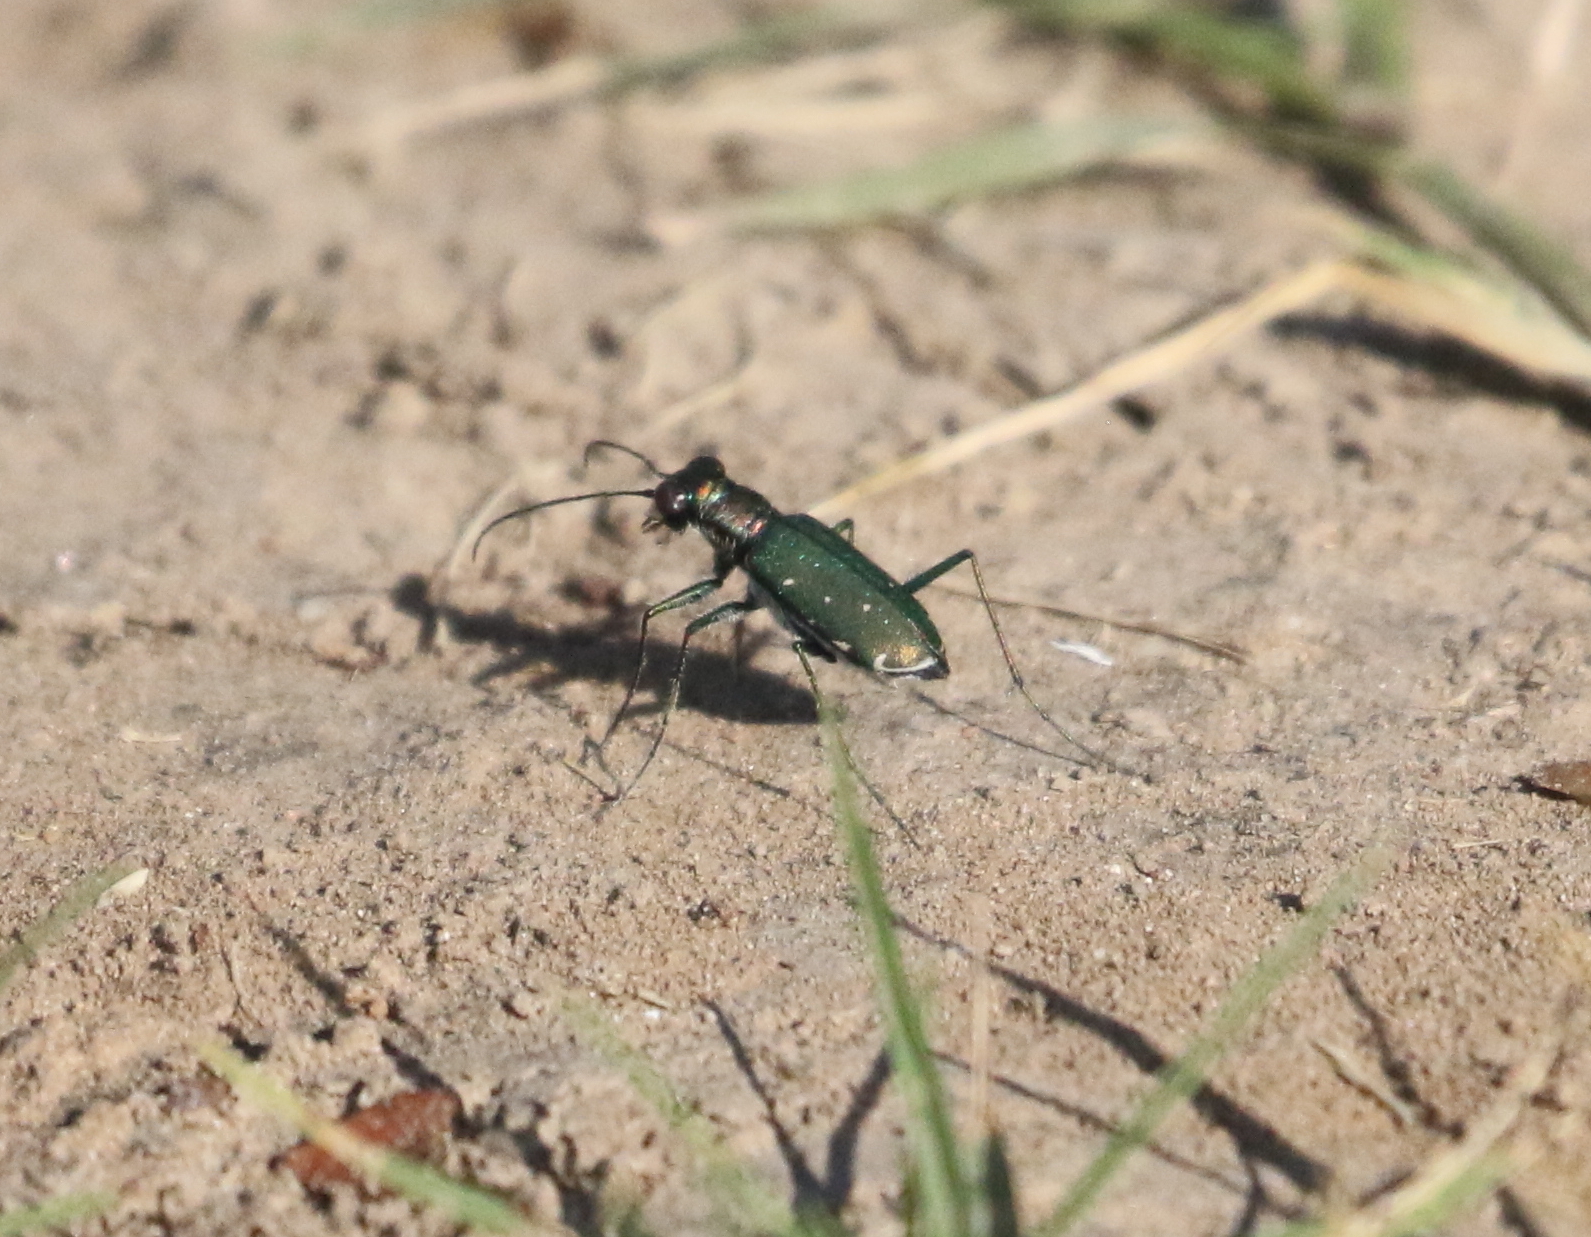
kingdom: Animalia
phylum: Arthropoda
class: Insecta
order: Coleoptera
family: Carabidae
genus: Cicindela
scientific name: Cicindela punctulata
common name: Punctured tiger beetle
